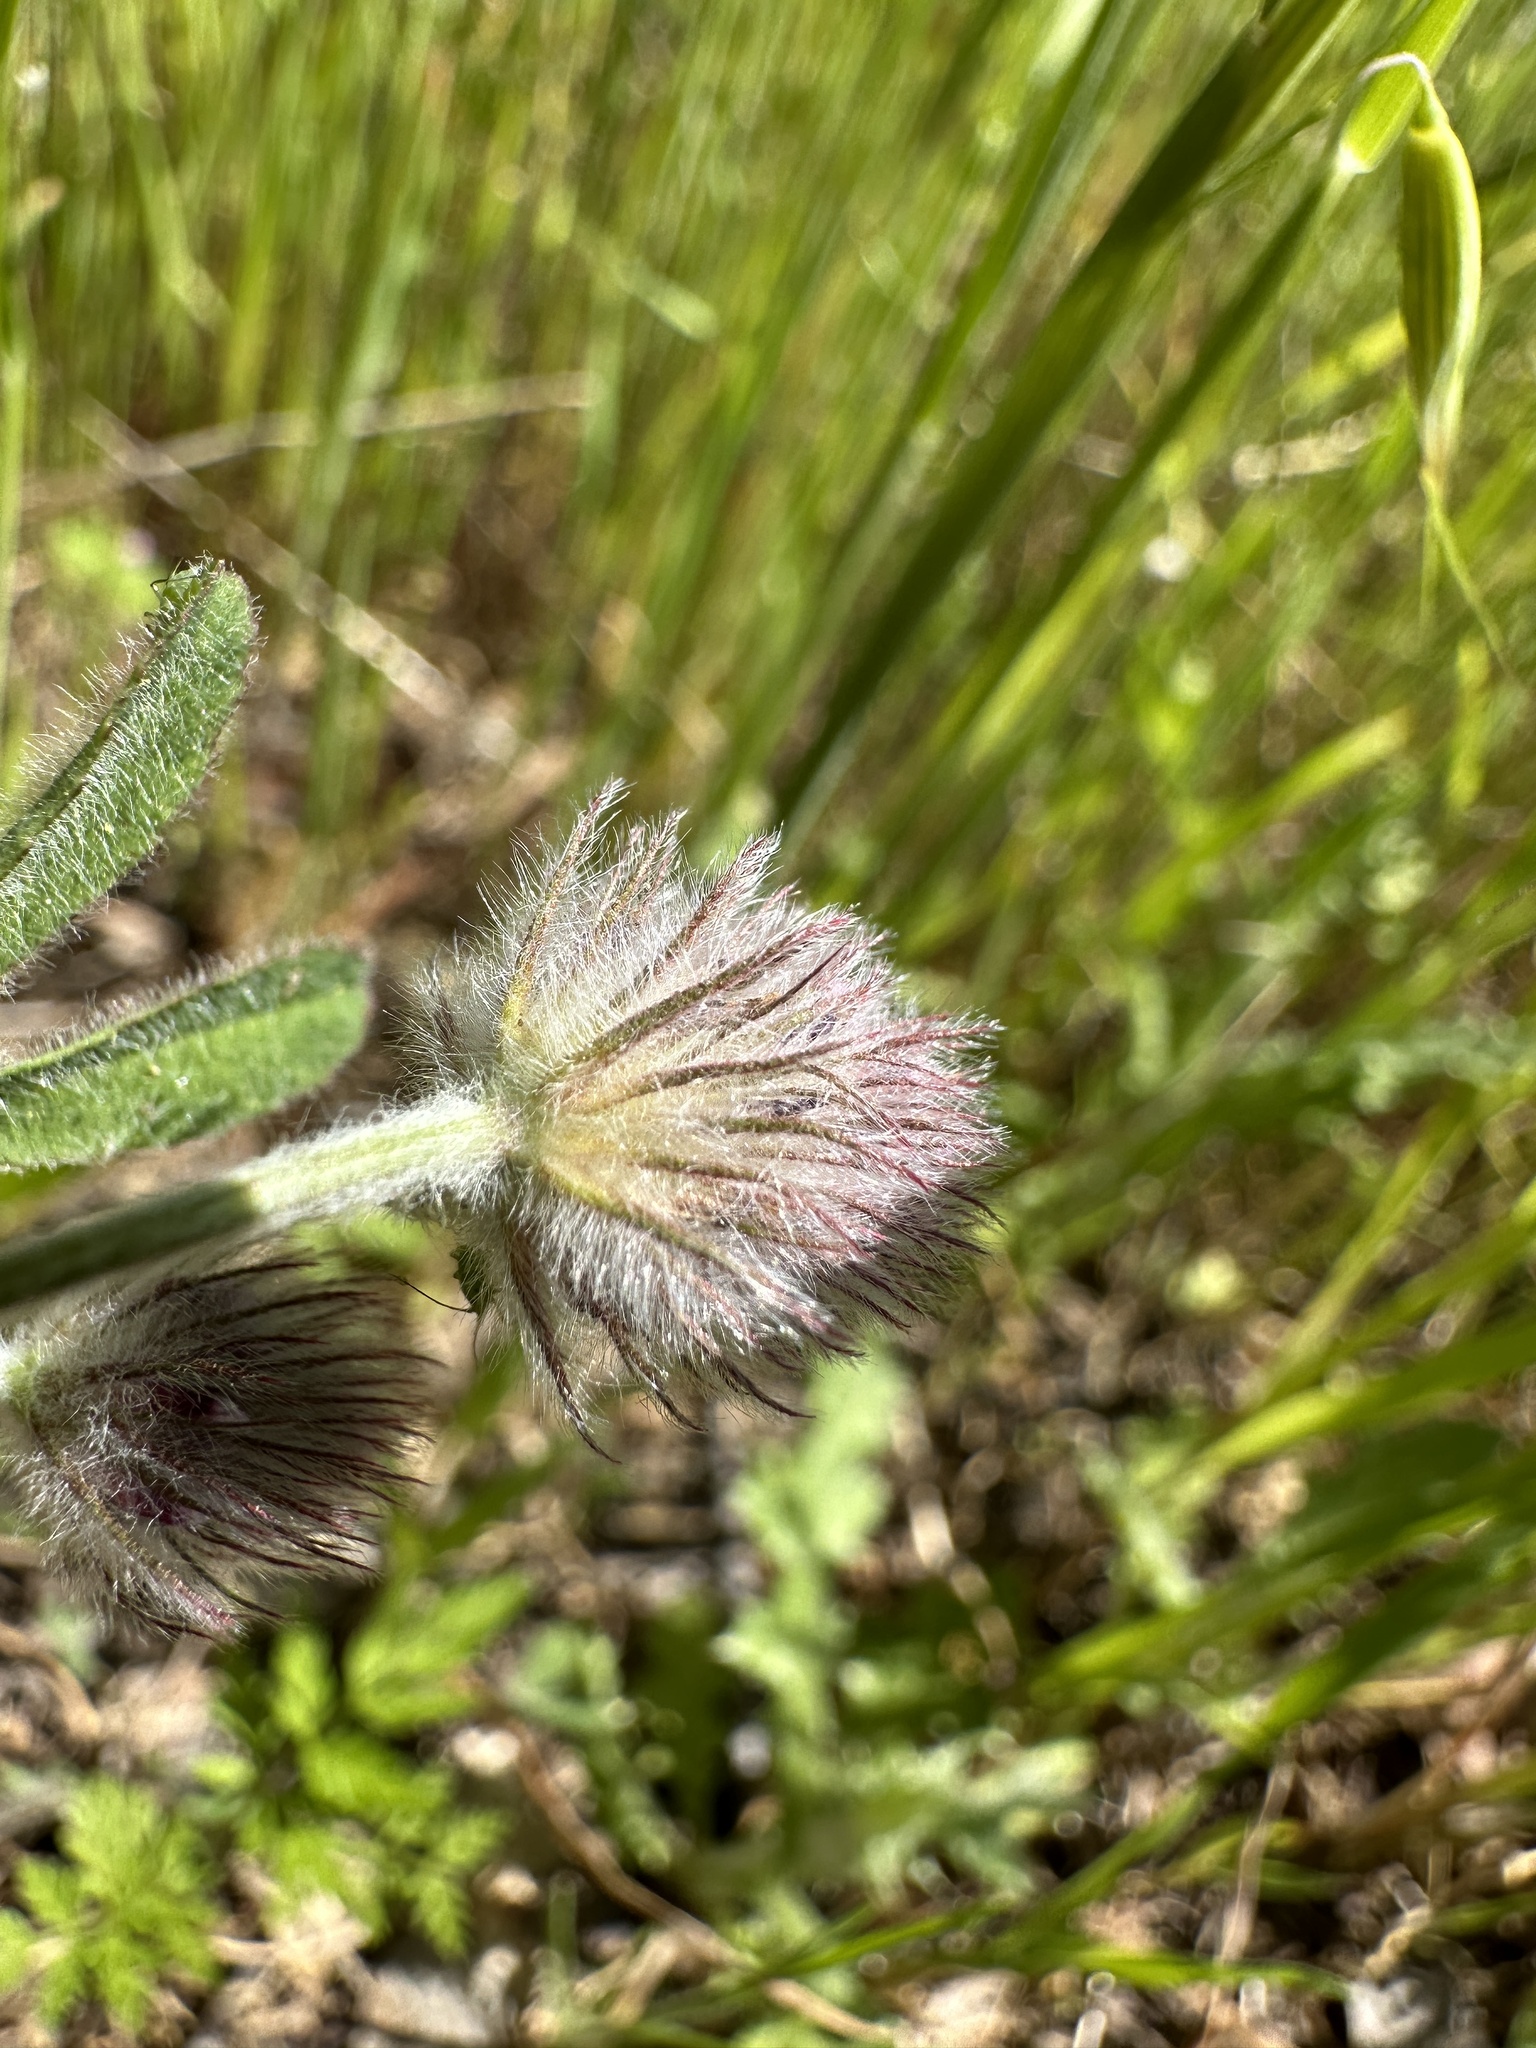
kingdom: Plantae
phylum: Tracheophyta
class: Magnoliopsida
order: Fabales
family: Fabaceae
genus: Trifolium
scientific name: Trifolium albopurpureum
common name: Rancheria clover
